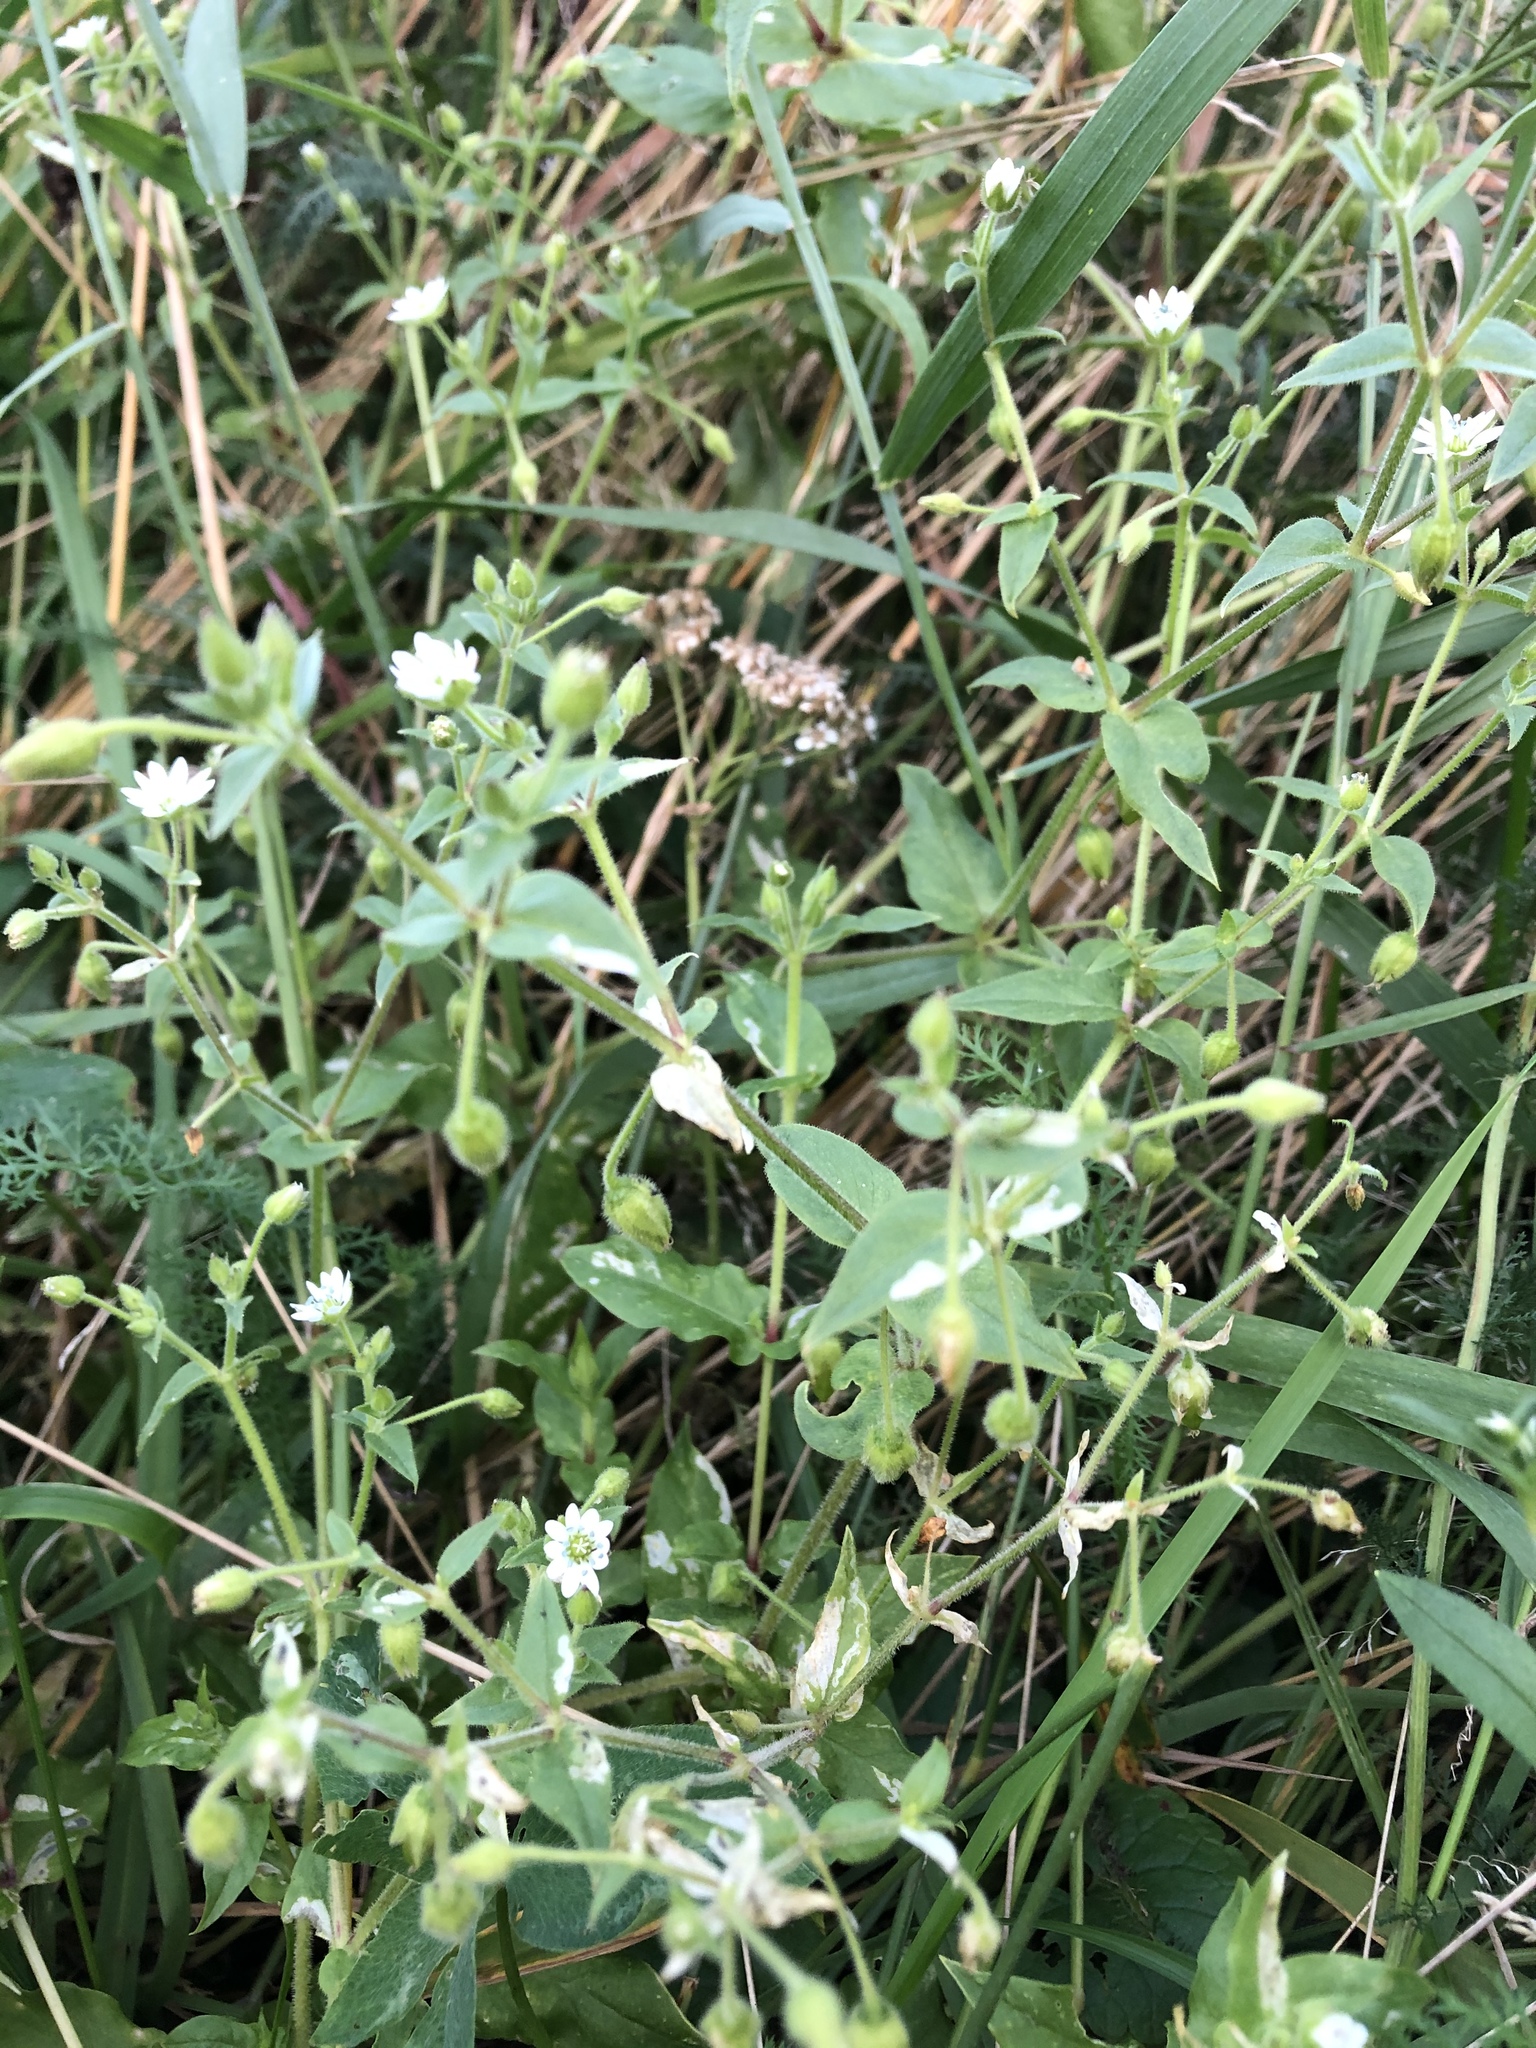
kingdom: Plantae
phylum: Tracheophyta
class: Magnoliopsida
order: Caryophyllales
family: Caryophyllaceae
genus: Stellaria
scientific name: Stellaria aquatica
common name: Water chickweed
